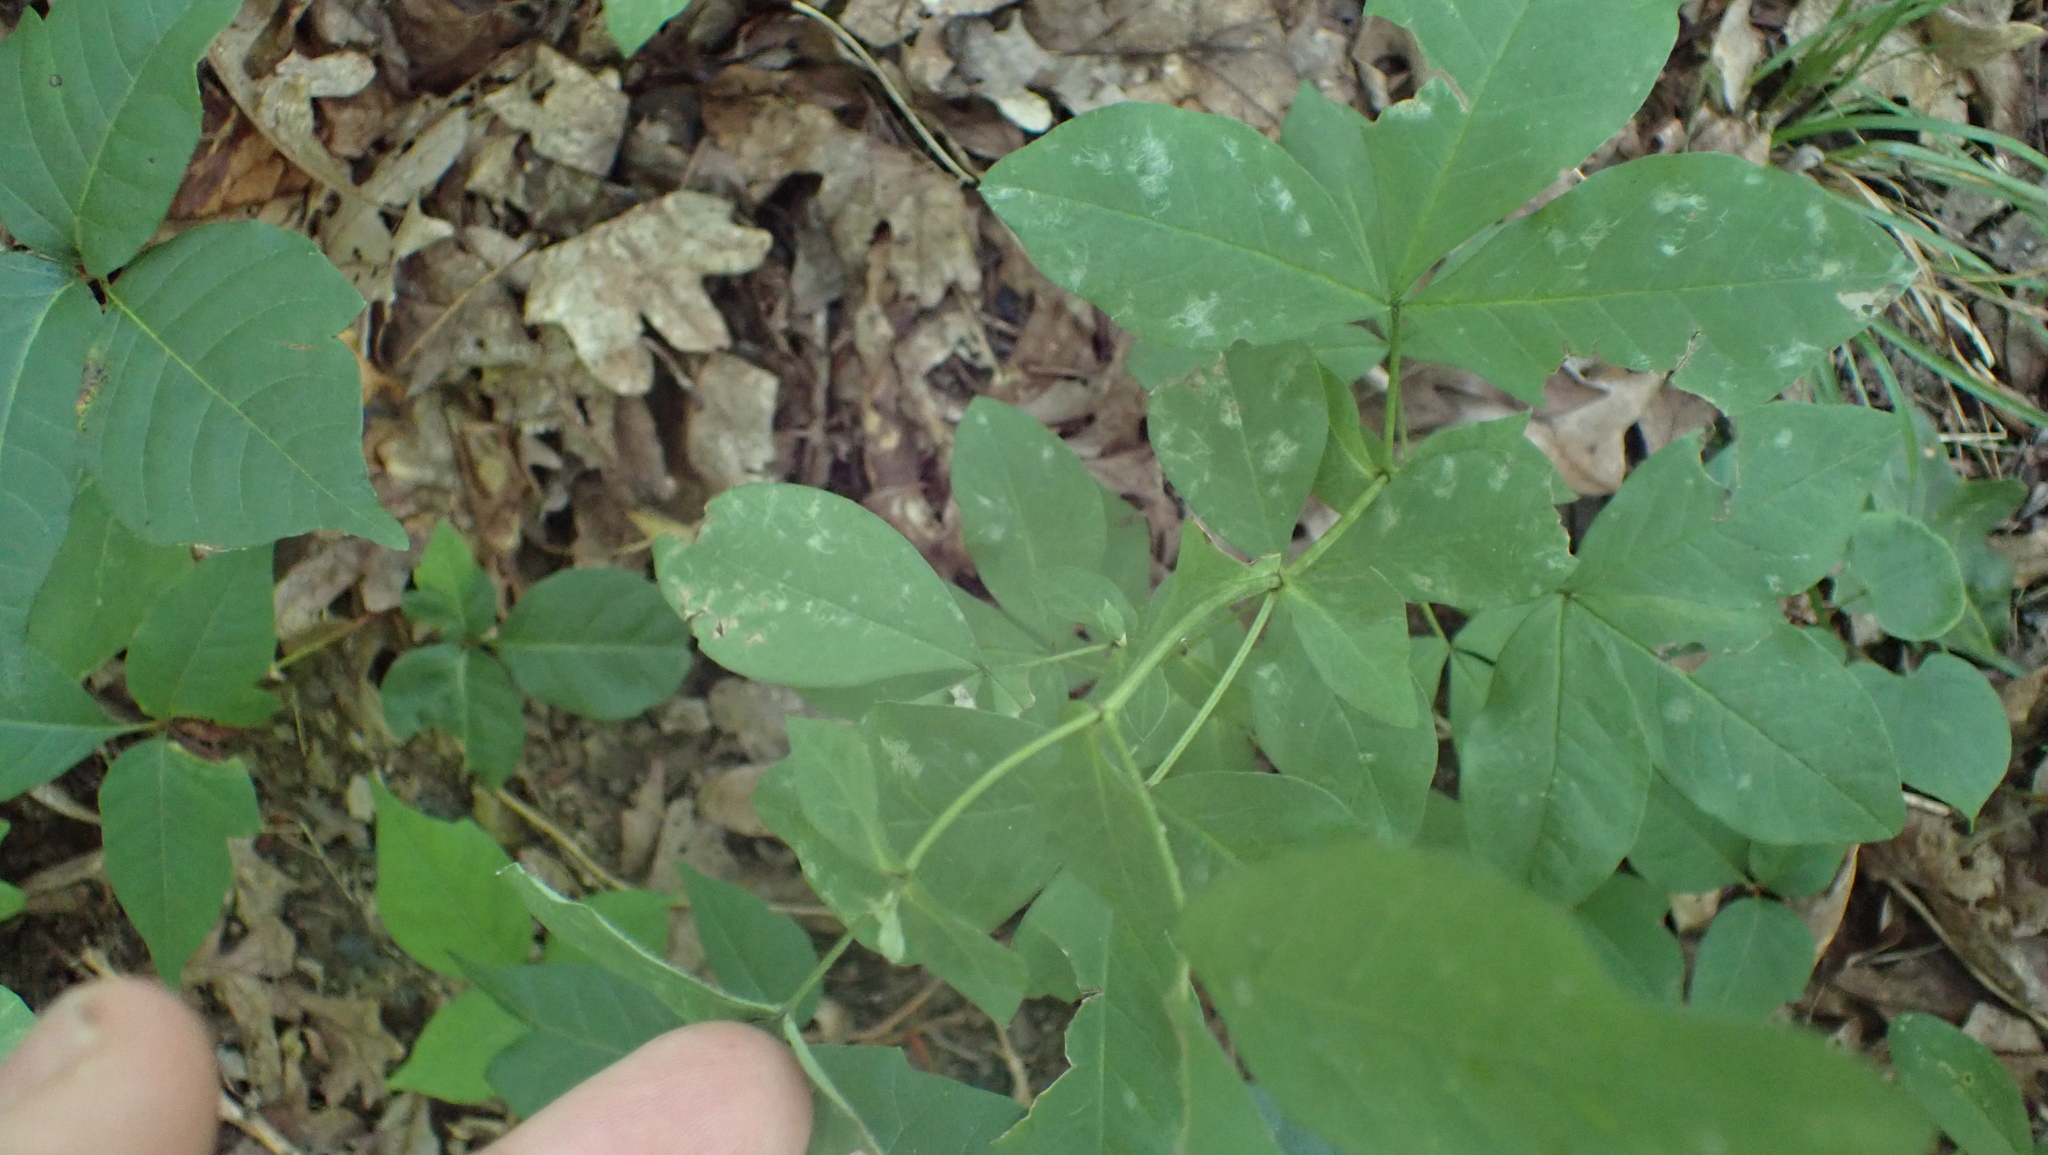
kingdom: Plantae
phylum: Tracheophyta
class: Magnoliopsida
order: Fabales
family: Fabaceae
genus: Thermopsis
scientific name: Thermopsis villosa
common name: Carolina-lupin
